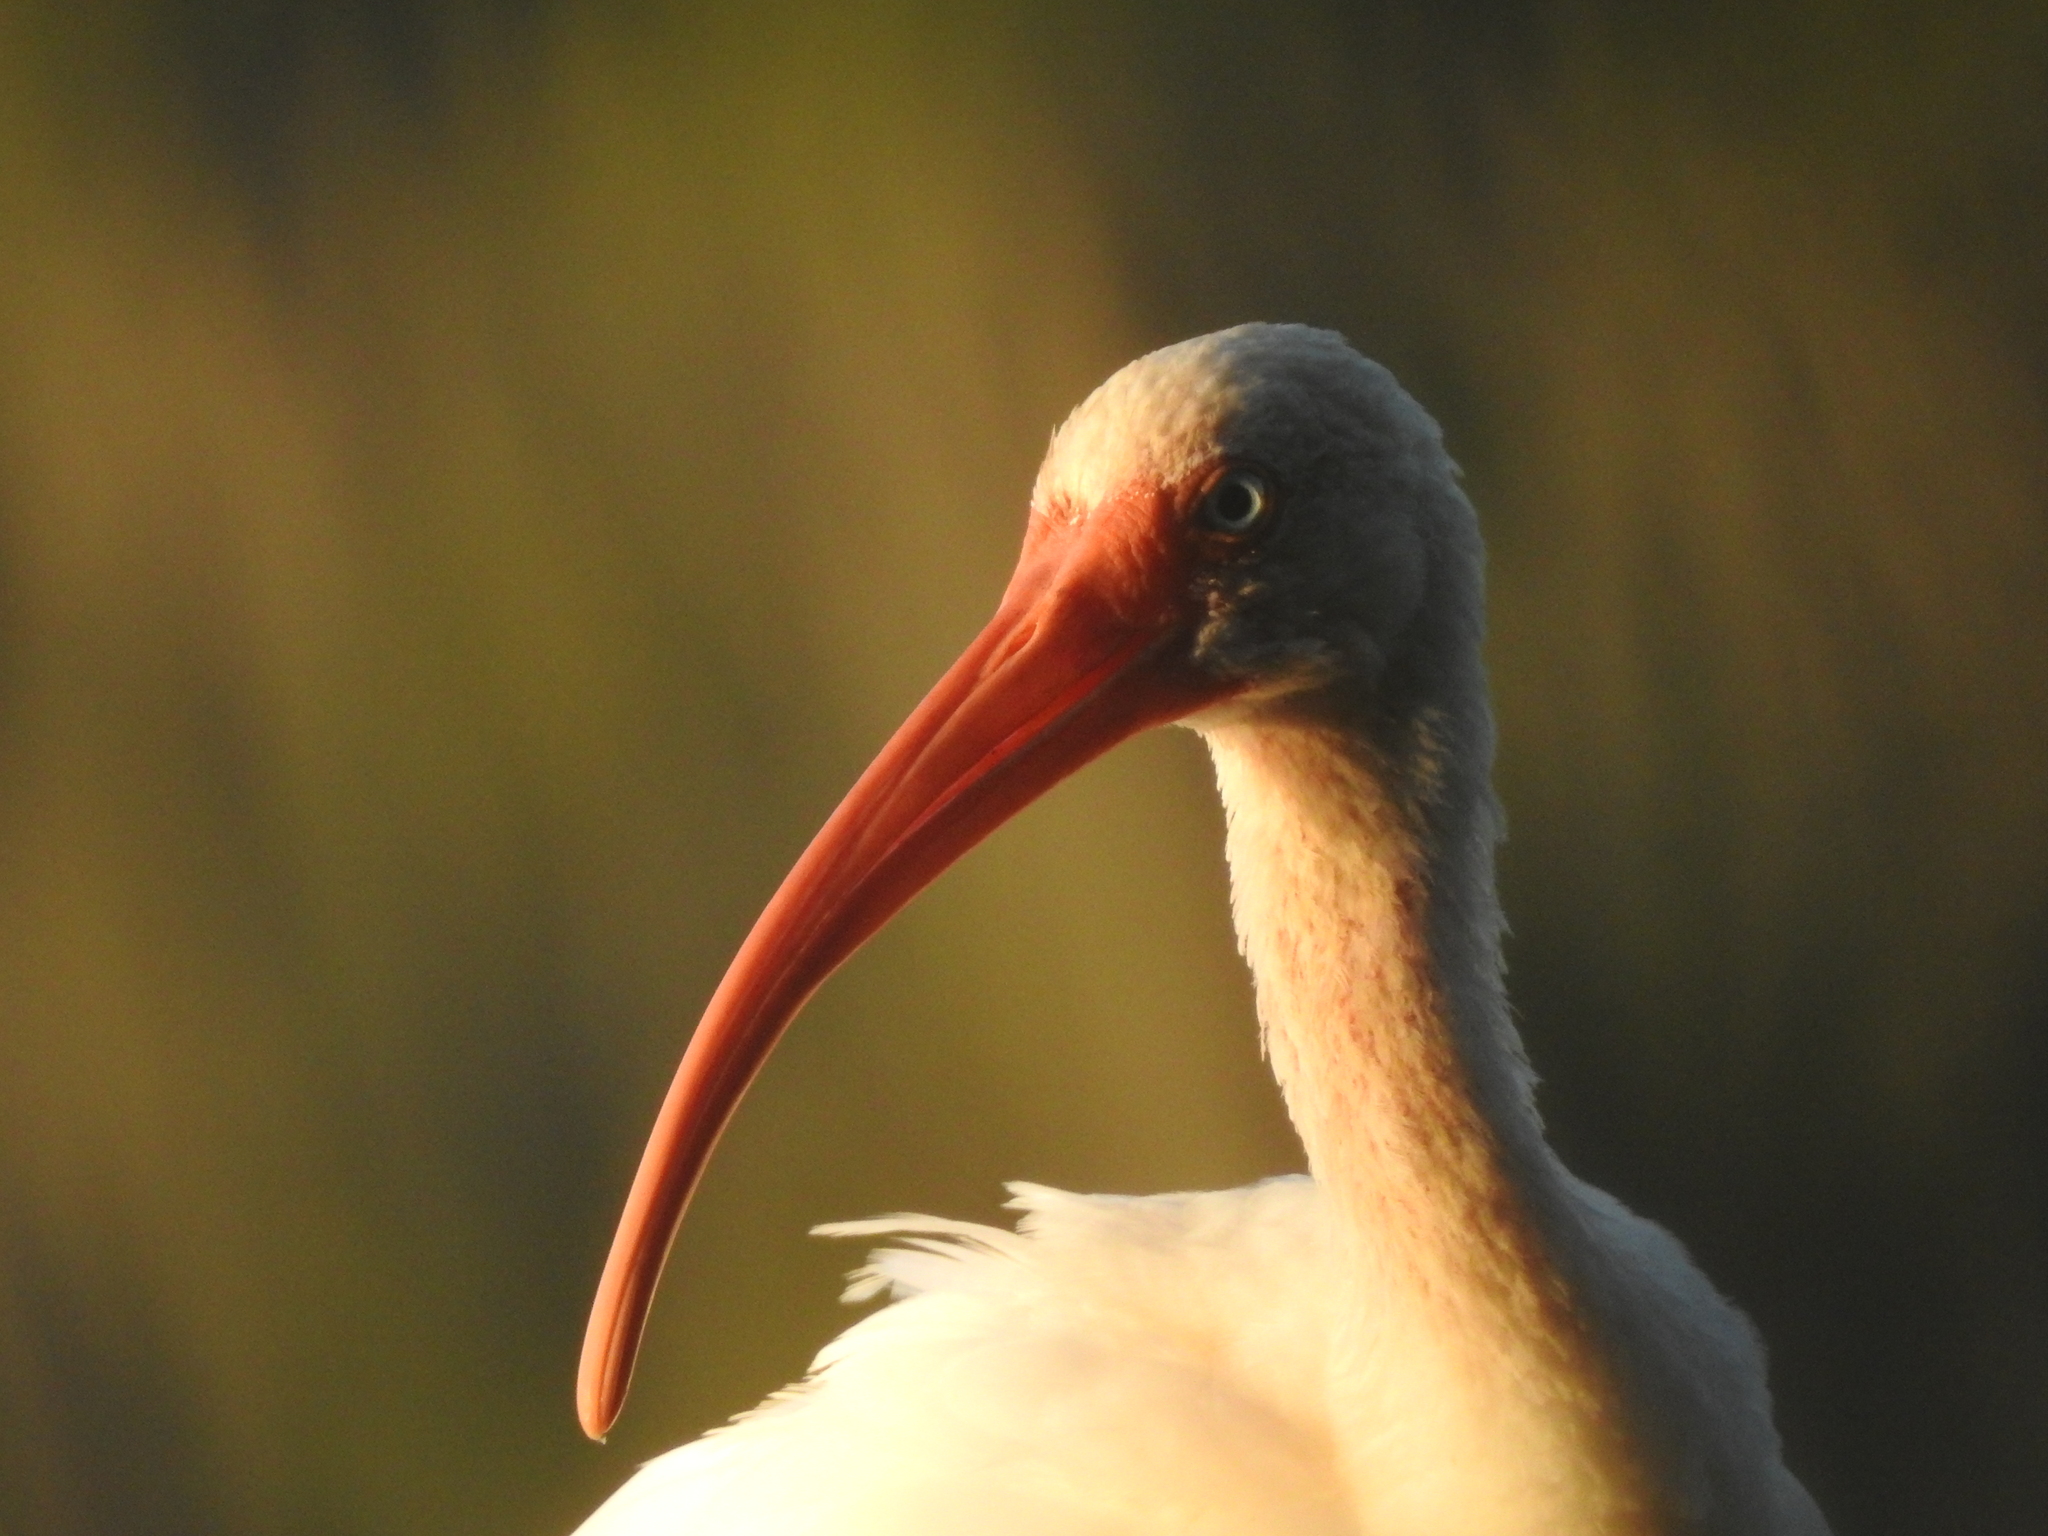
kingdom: Animalia
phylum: Chordata
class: Aves
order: Pelecaniformes
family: Threskiornithidae
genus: Eudocimus
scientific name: Eudocimus albus
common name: White ibis
